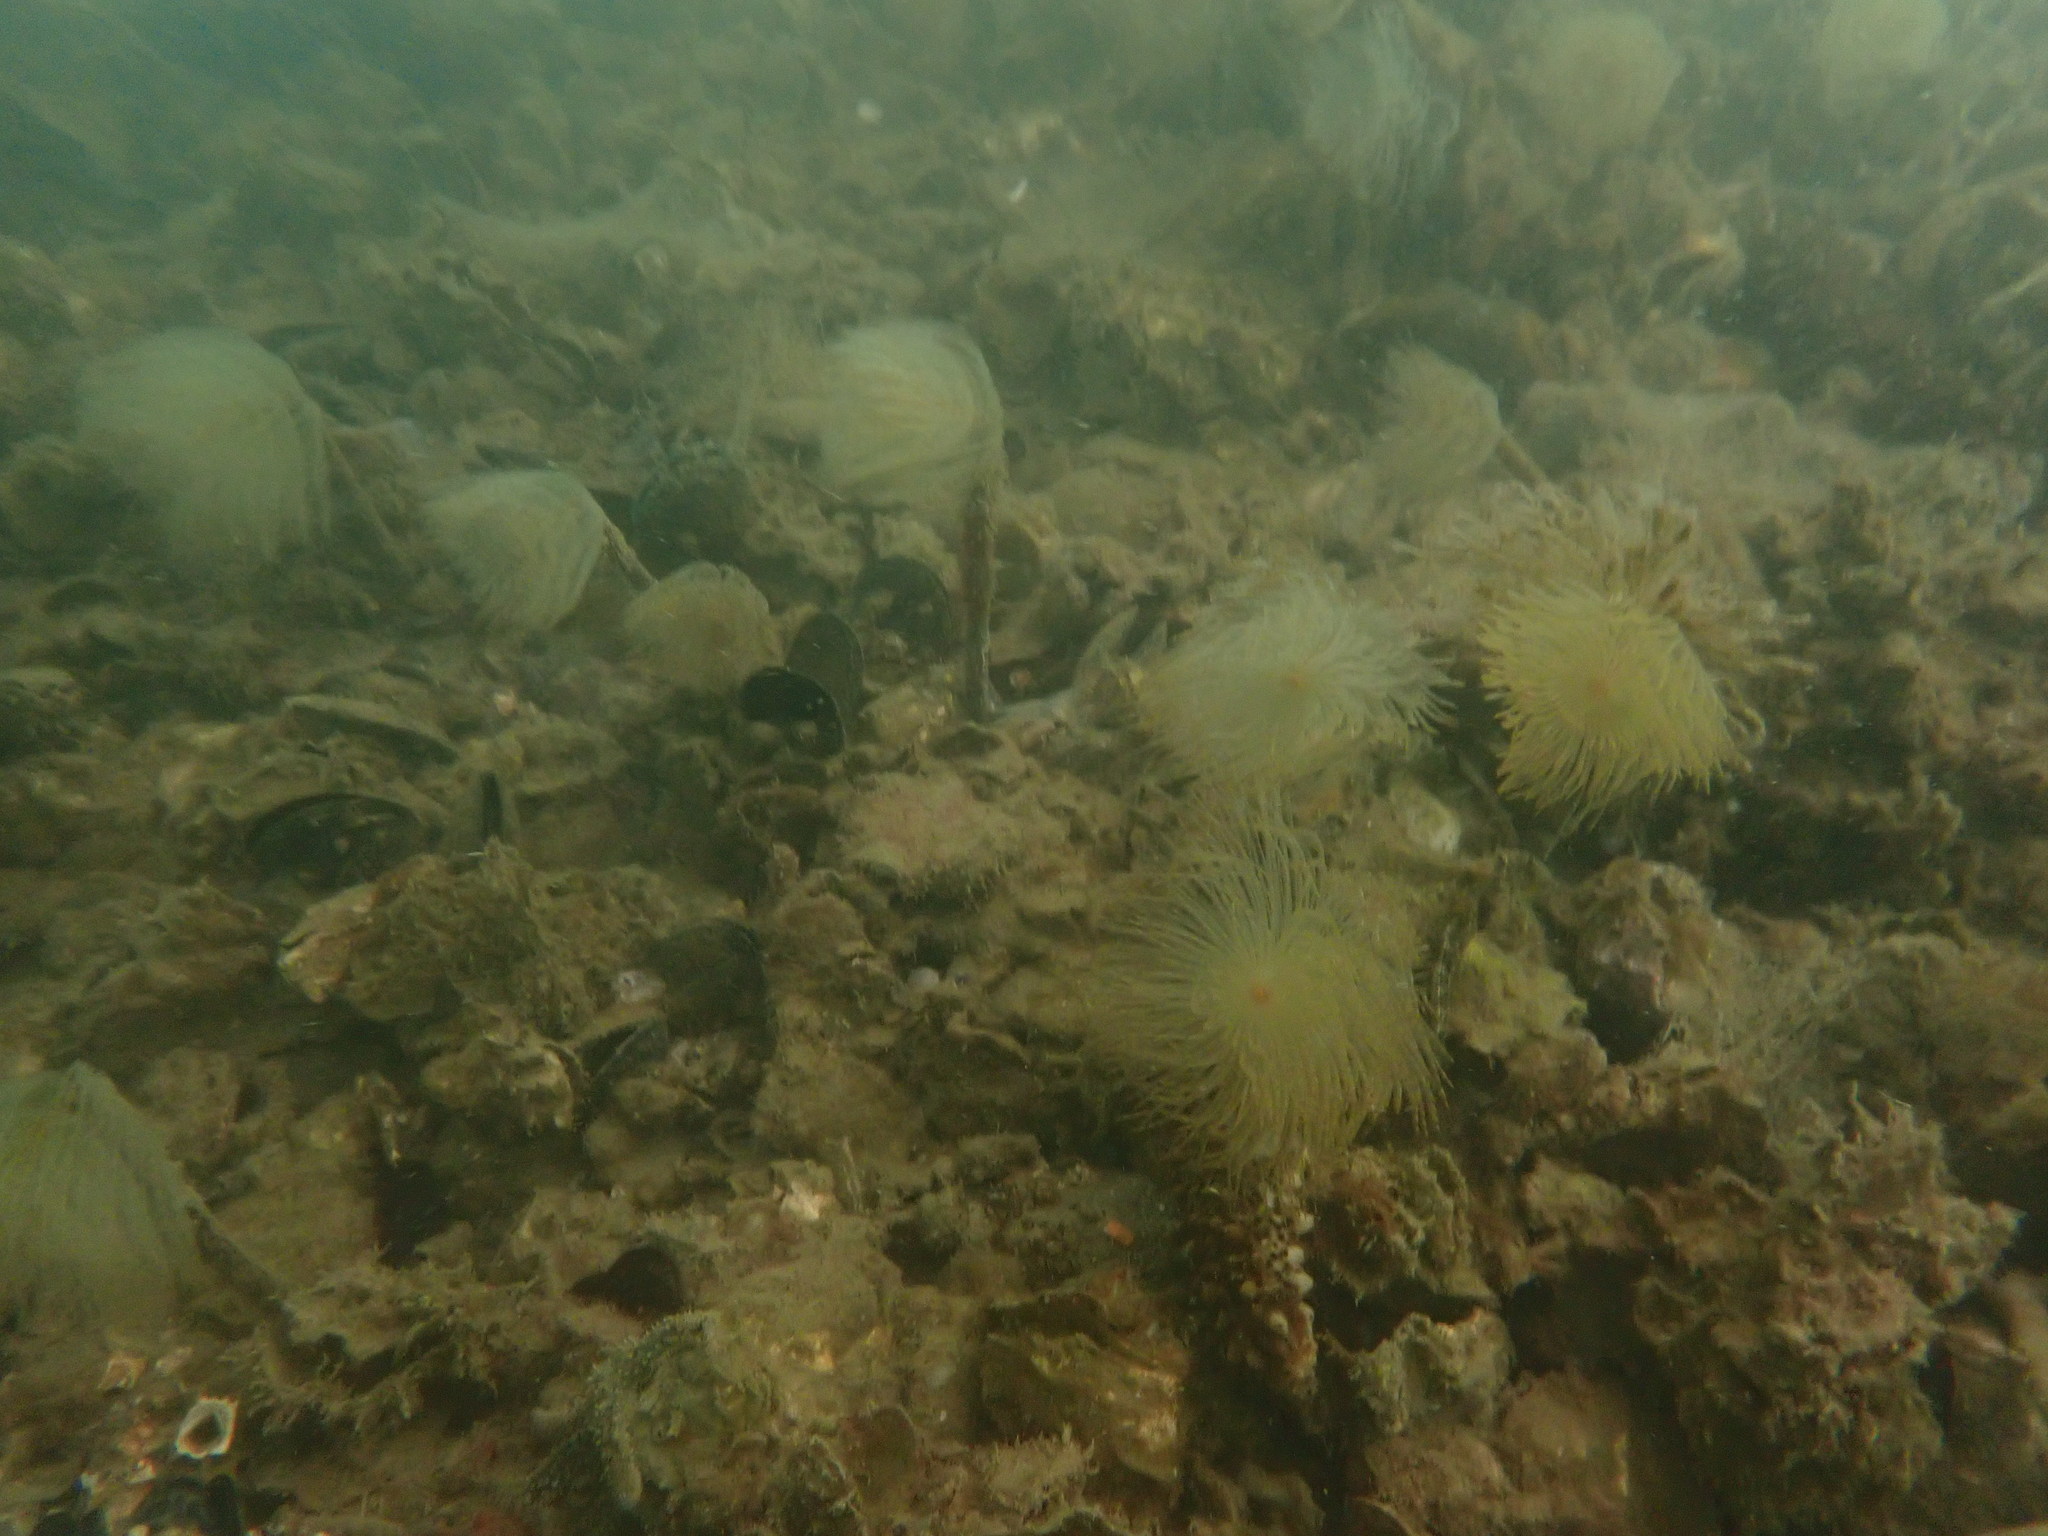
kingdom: Animalia
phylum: Annelida
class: Polychaeta
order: Sabellida
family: Sabellidae
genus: Sabella
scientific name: Sabella spallanzanii
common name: Feather duster worm
